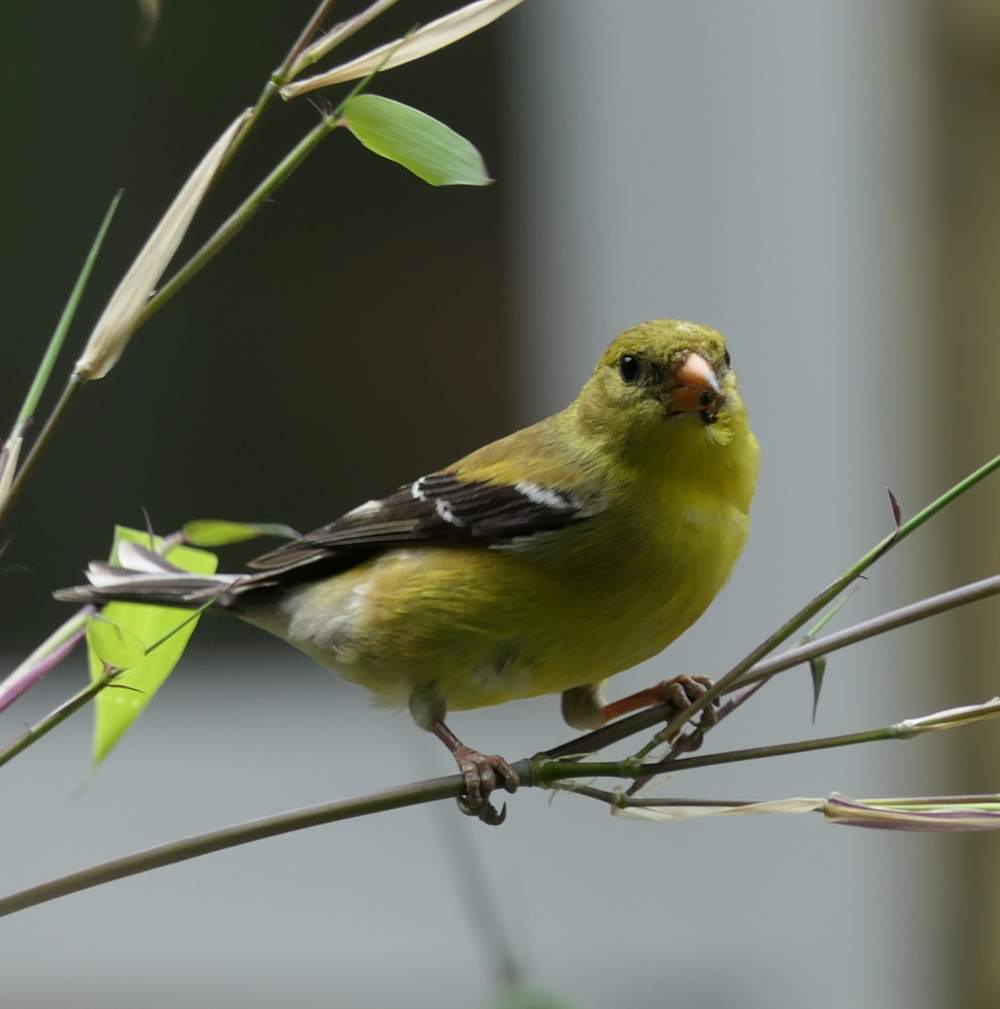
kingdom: Animalia
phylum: Chordata
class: Aves
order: Passeriformes
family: Fringillidae
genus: Spinus
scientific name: Spinus tristis
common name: American goldfinch
